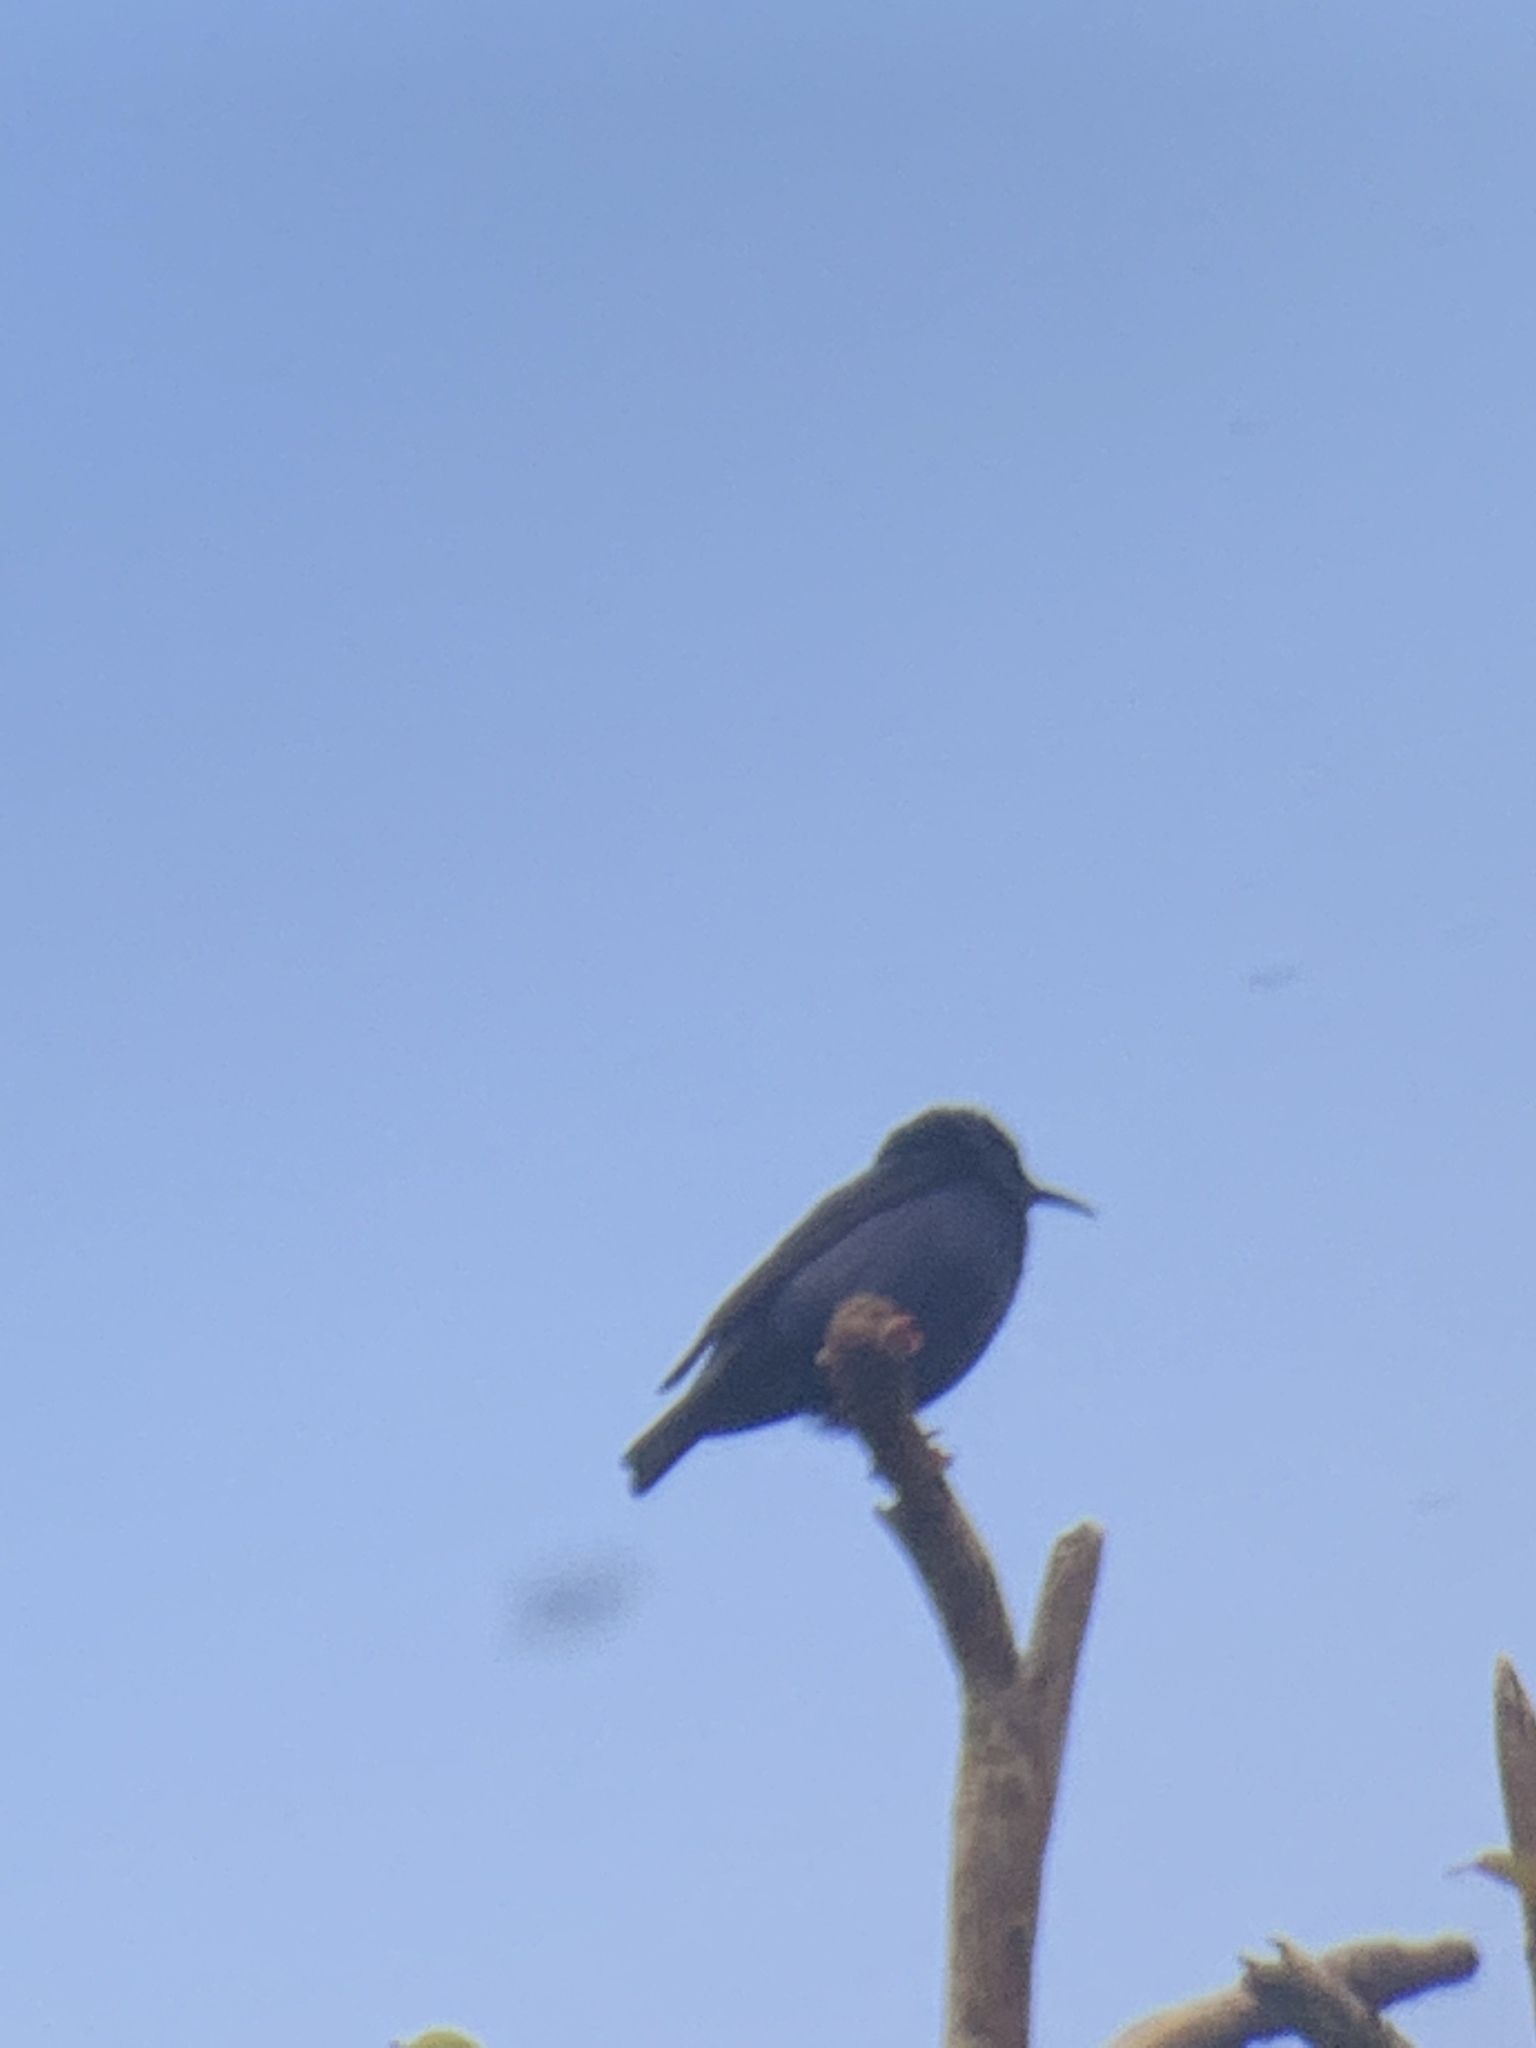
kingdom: Animalia
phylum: Chordata
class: Aves
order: Passeriformes
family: Thraupidae
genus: Cyanerpes
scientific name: Cyanerpes cyaneus
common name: Red-legged honeycreeper
